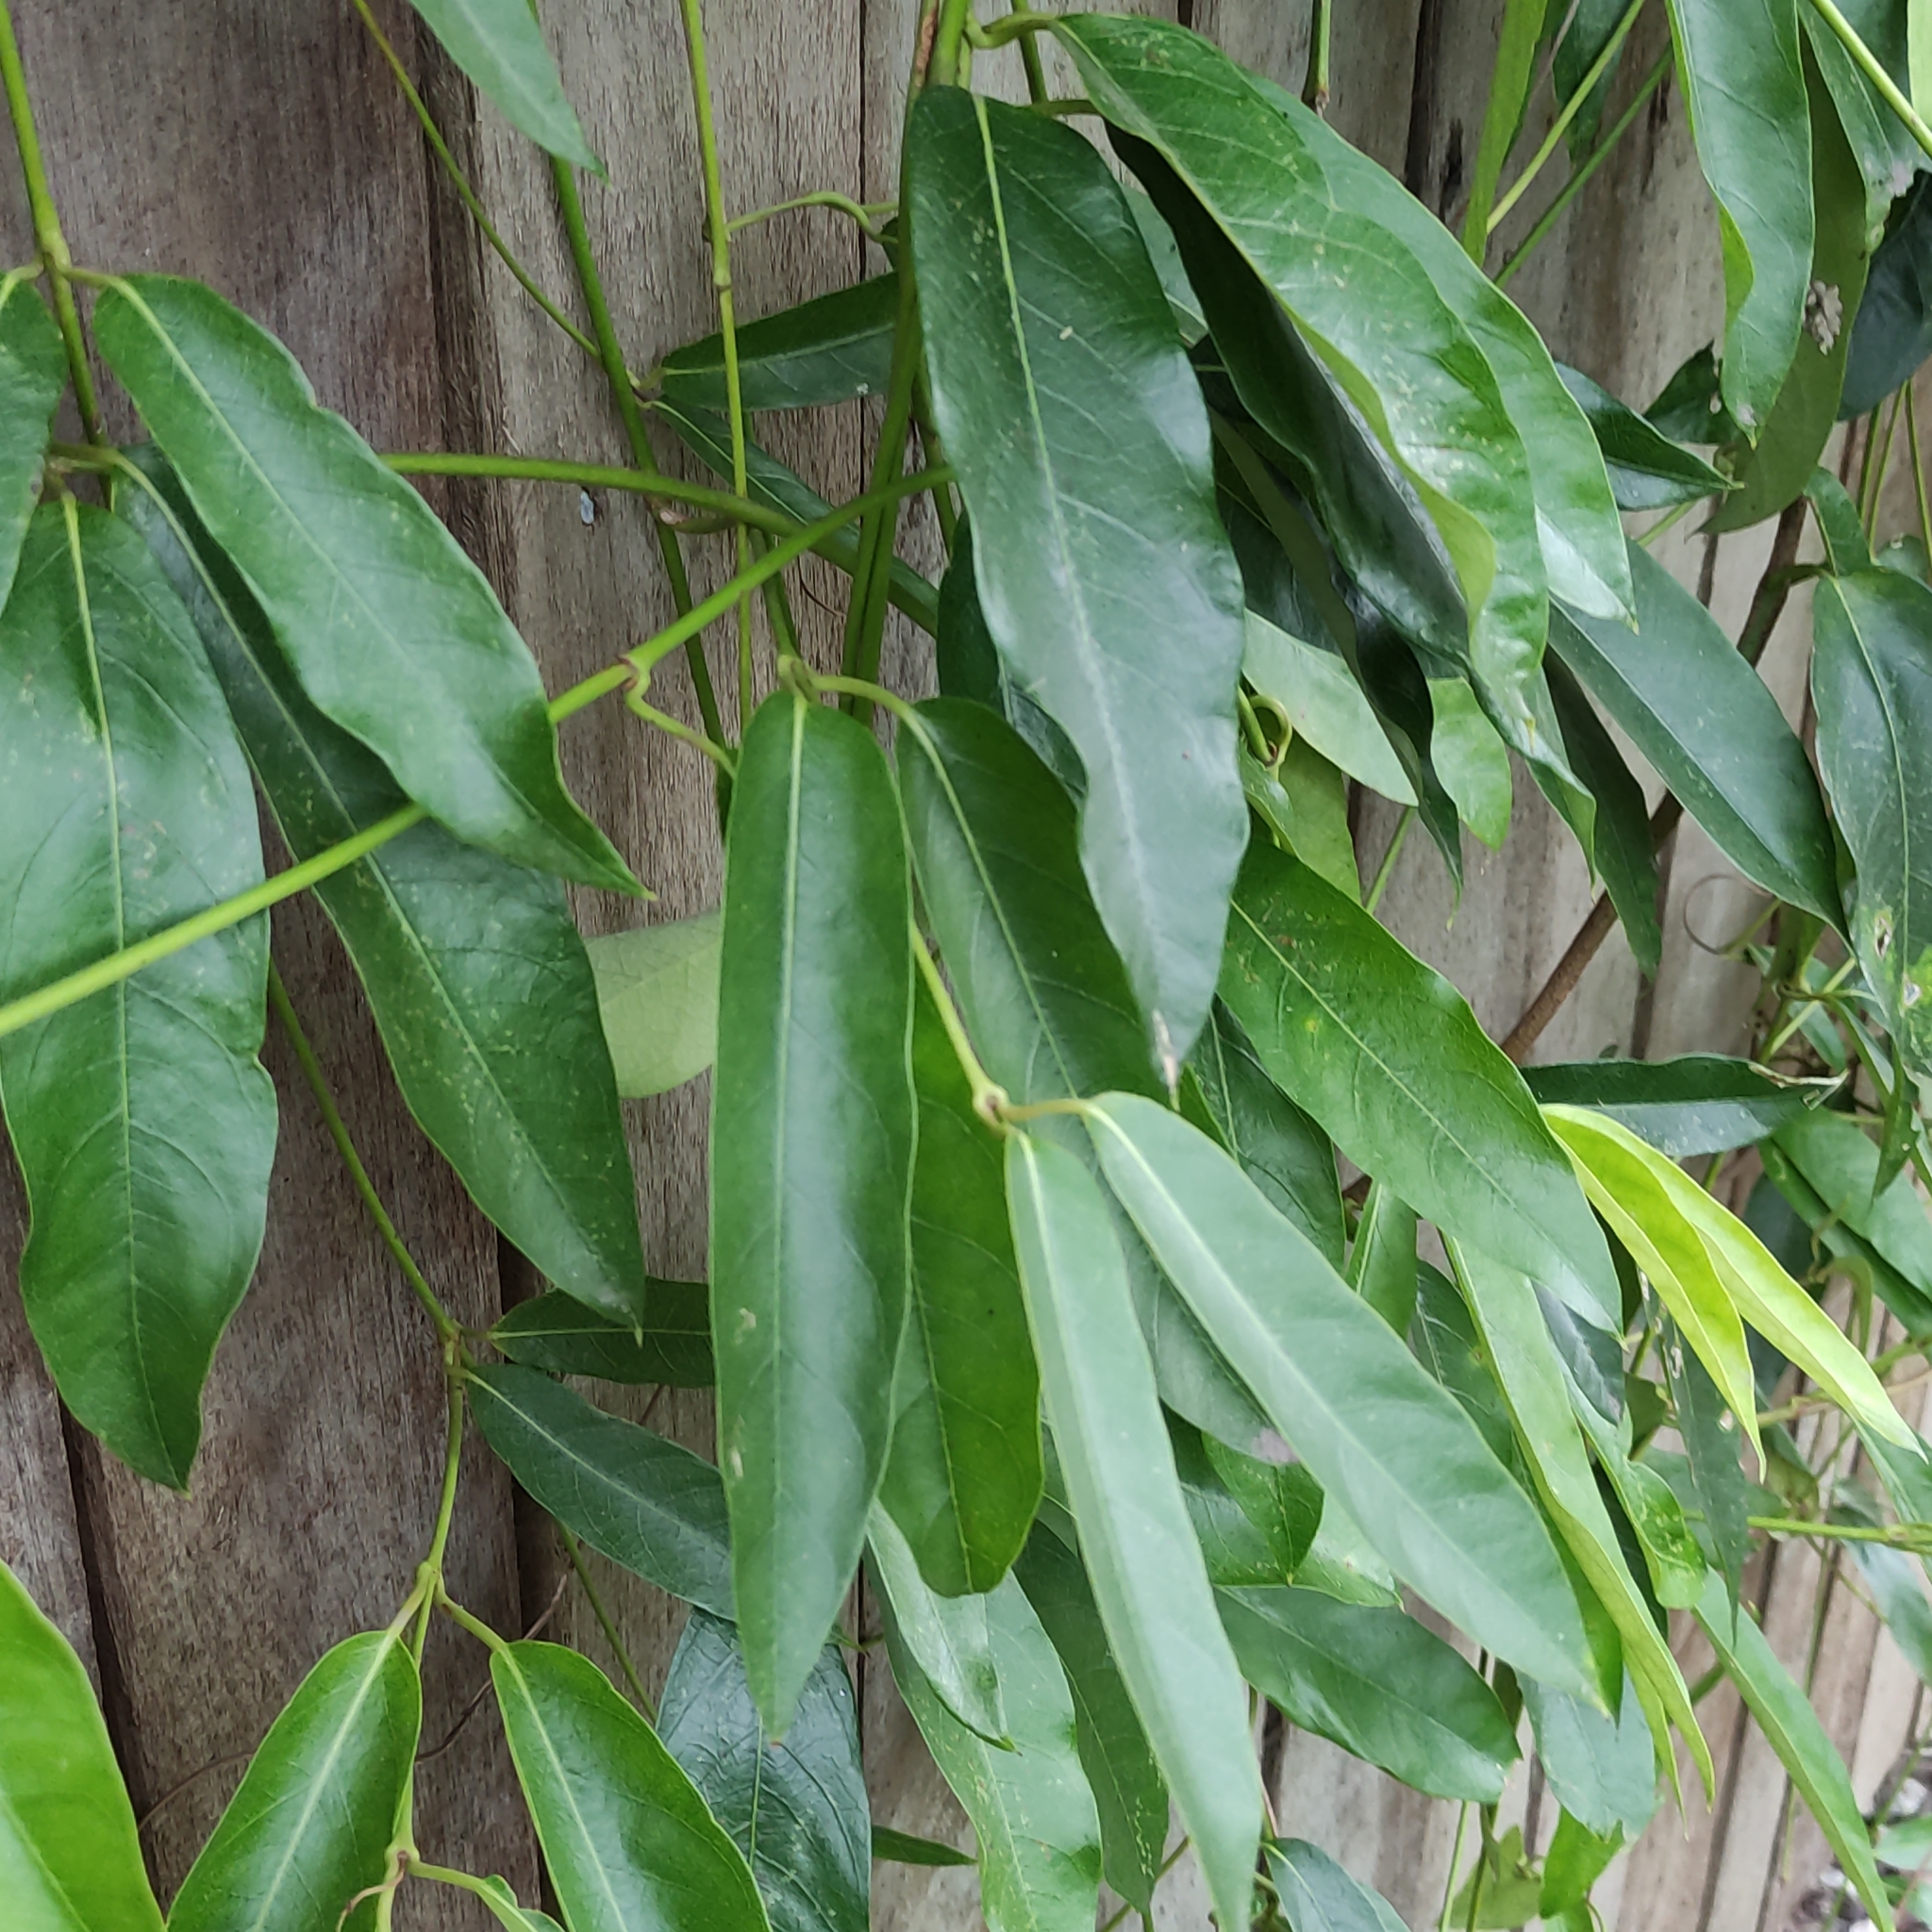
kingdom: Plantae
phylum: Tracheophyta
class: Magnoliopsida
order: Gentianales
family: Apocynaceae
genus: Parsonsia
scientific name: Parsonsia straminea
